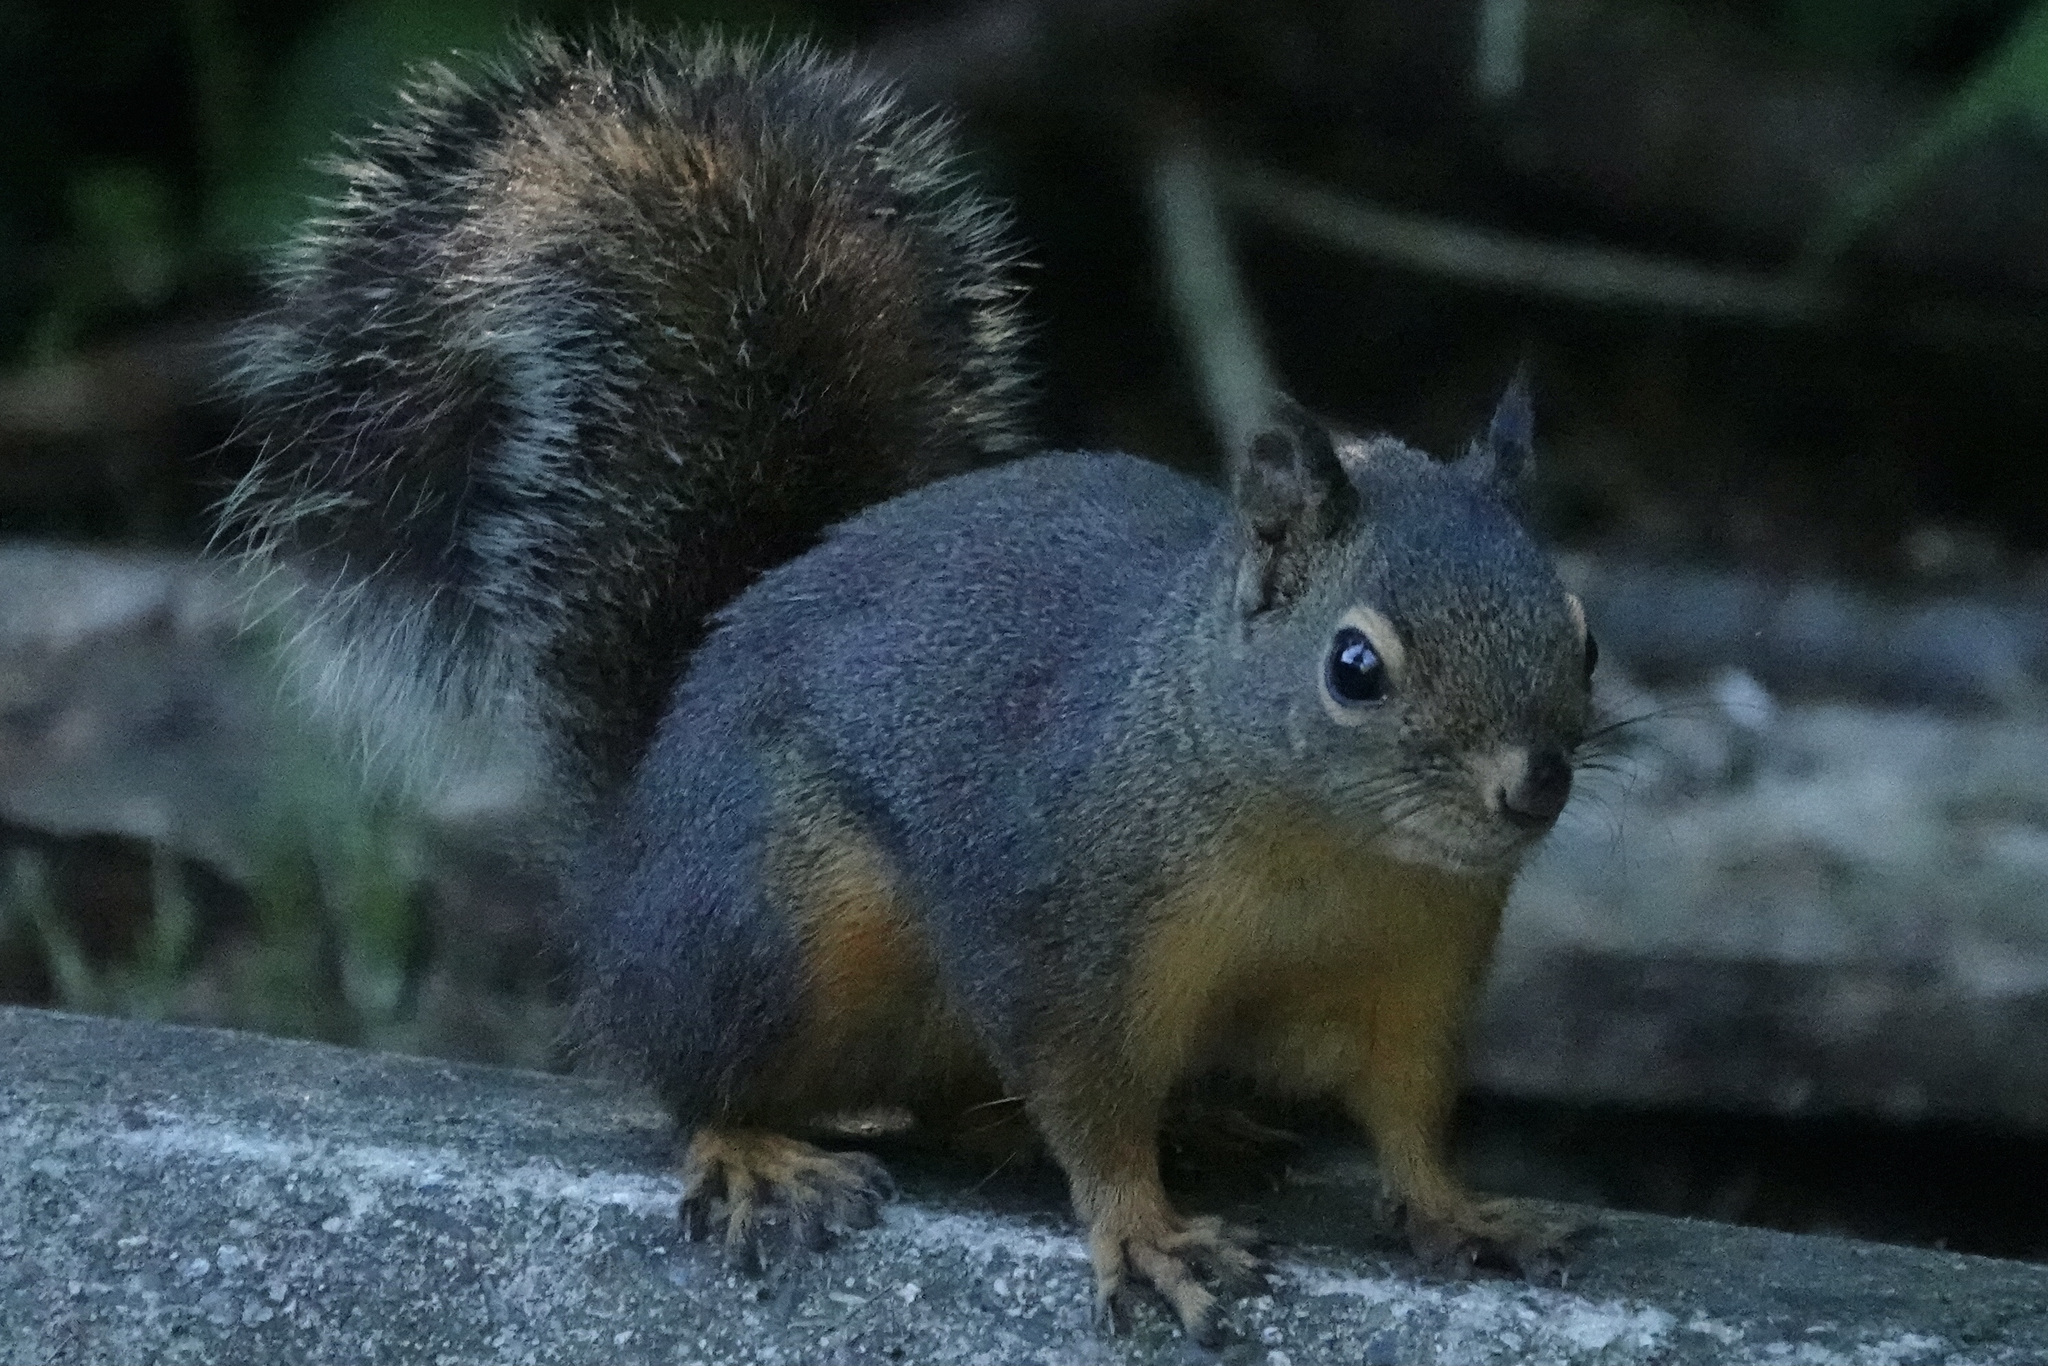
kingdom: Animalia
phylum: Chordata
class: Mammalia
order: Rodentia
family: Sciuridae
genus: Tamiasciurus
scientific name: Tamiasciurus douglasii
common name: Douglas's squirrel
